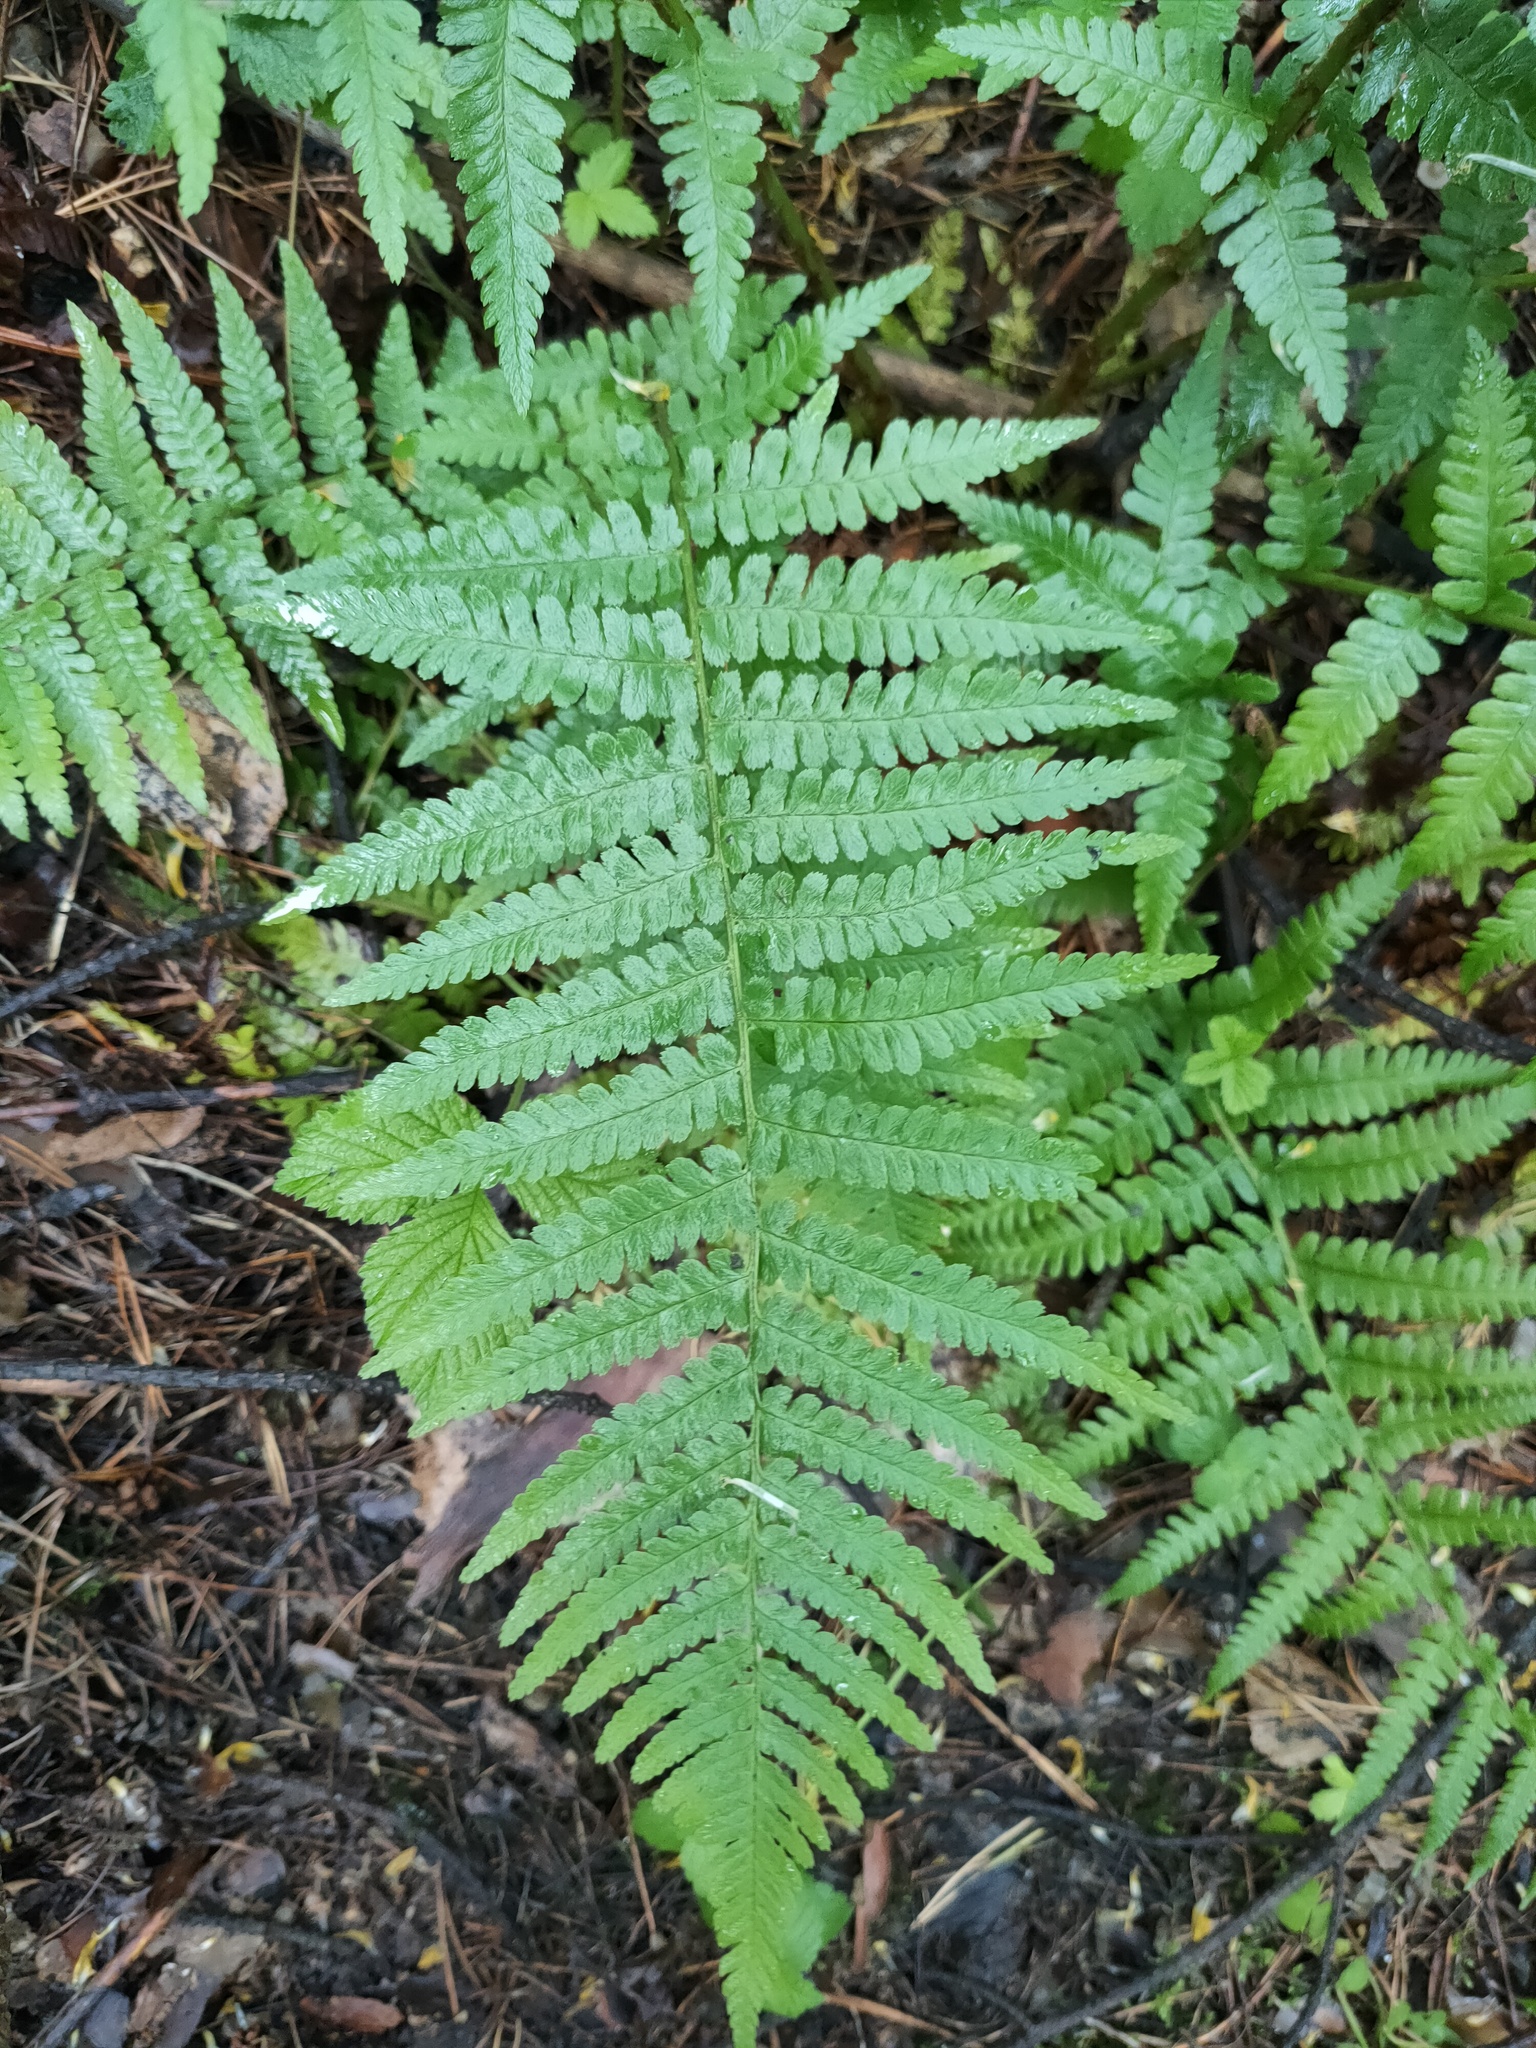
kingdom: Plantae
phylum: Tracheophyta
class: Polypodiopsida
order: Polypodiales
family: Dryopteridaceae
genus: Dryopteris
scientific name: Dryopteris filix-mas
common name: Male fern
